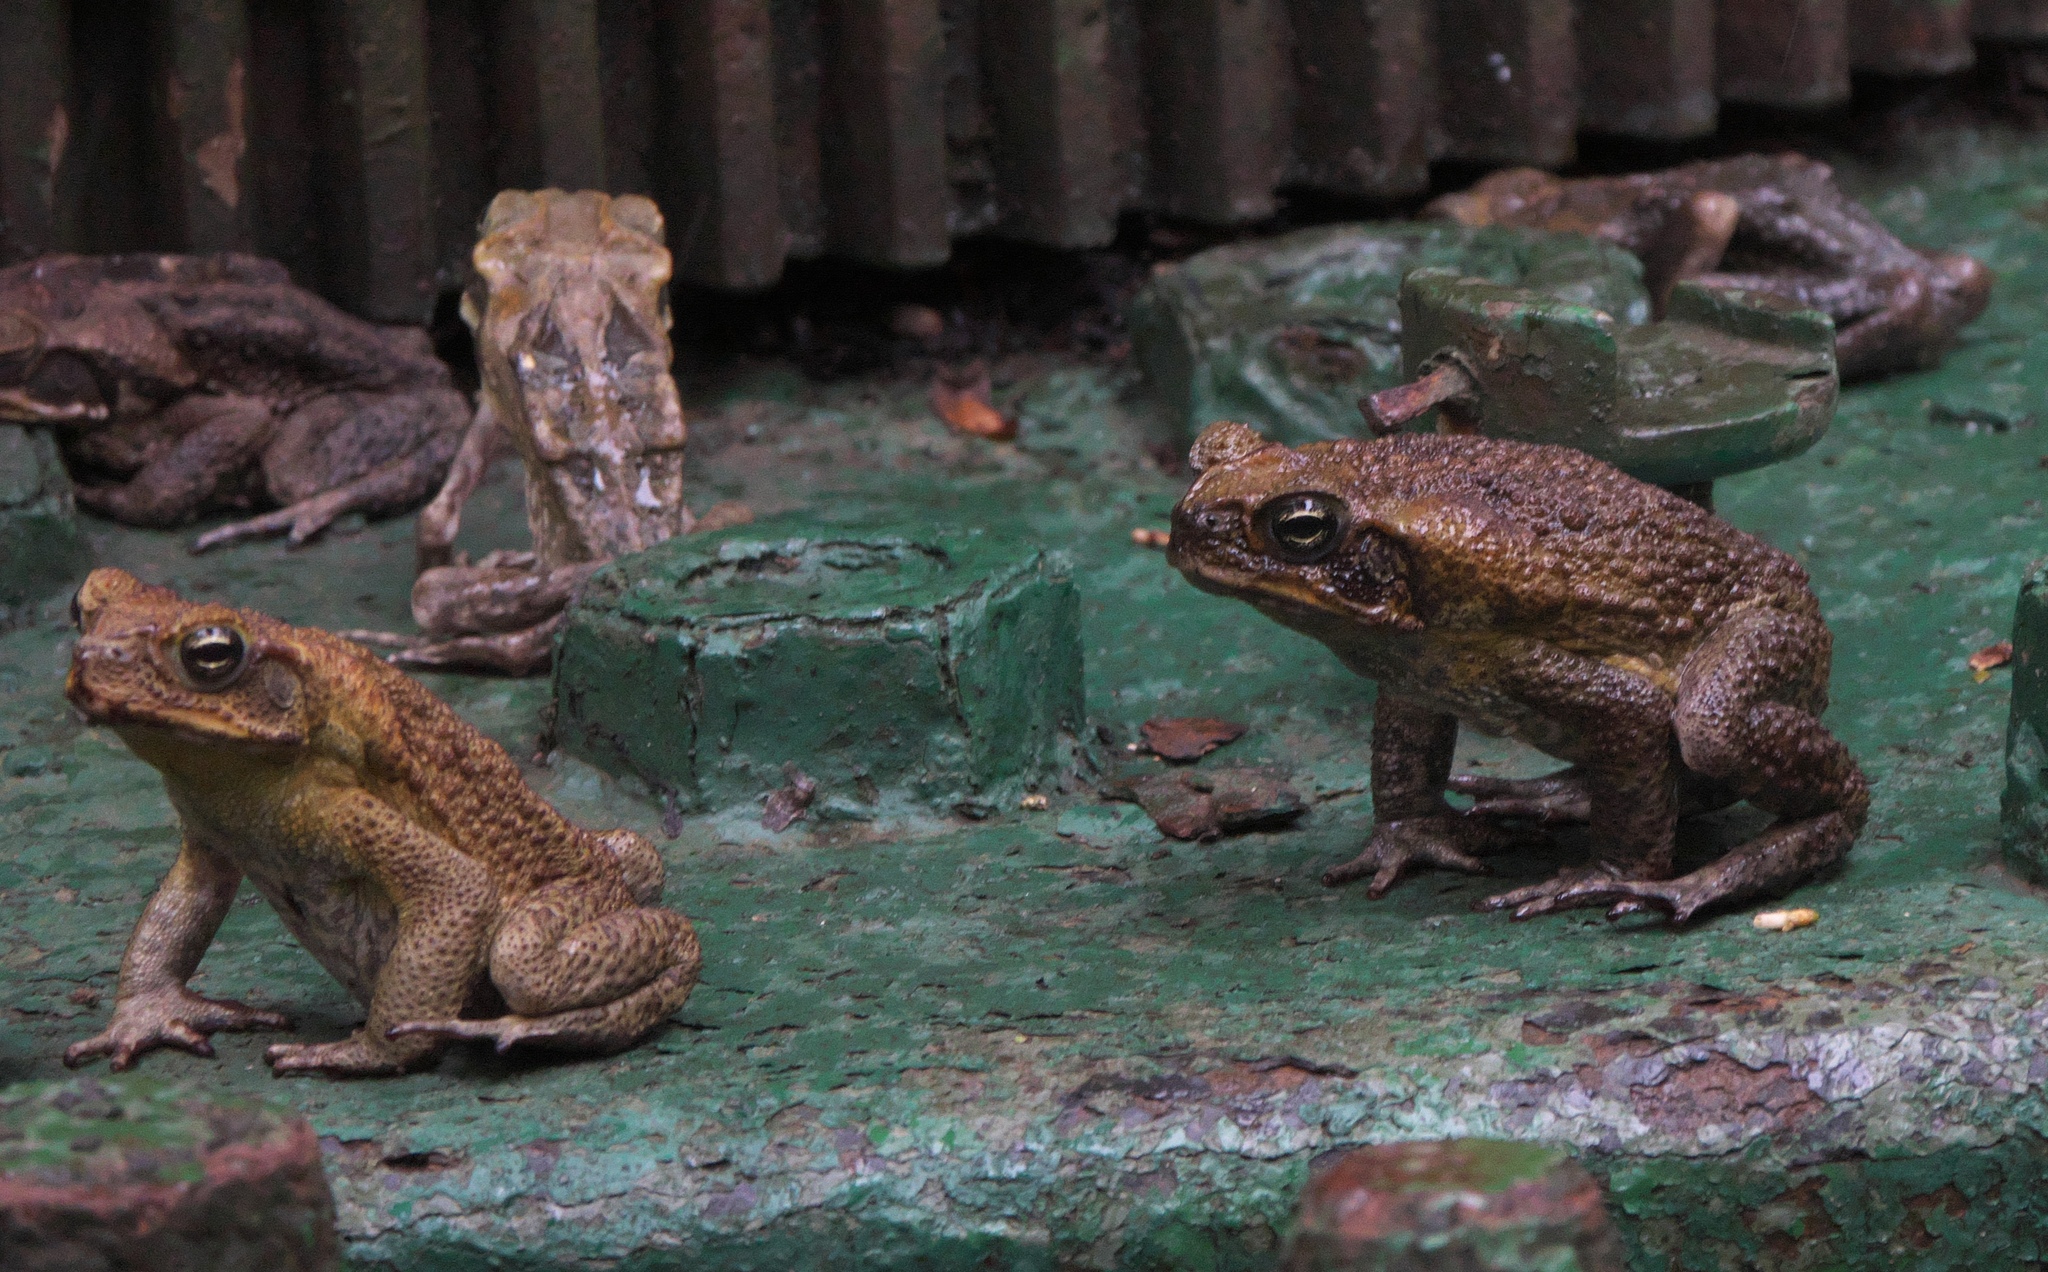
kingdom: Animalia
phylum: Chordata
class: Amphibia
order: Anura
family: Bufonidae
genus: Rhinella
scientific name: Rhinella marina
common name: Cane toad
